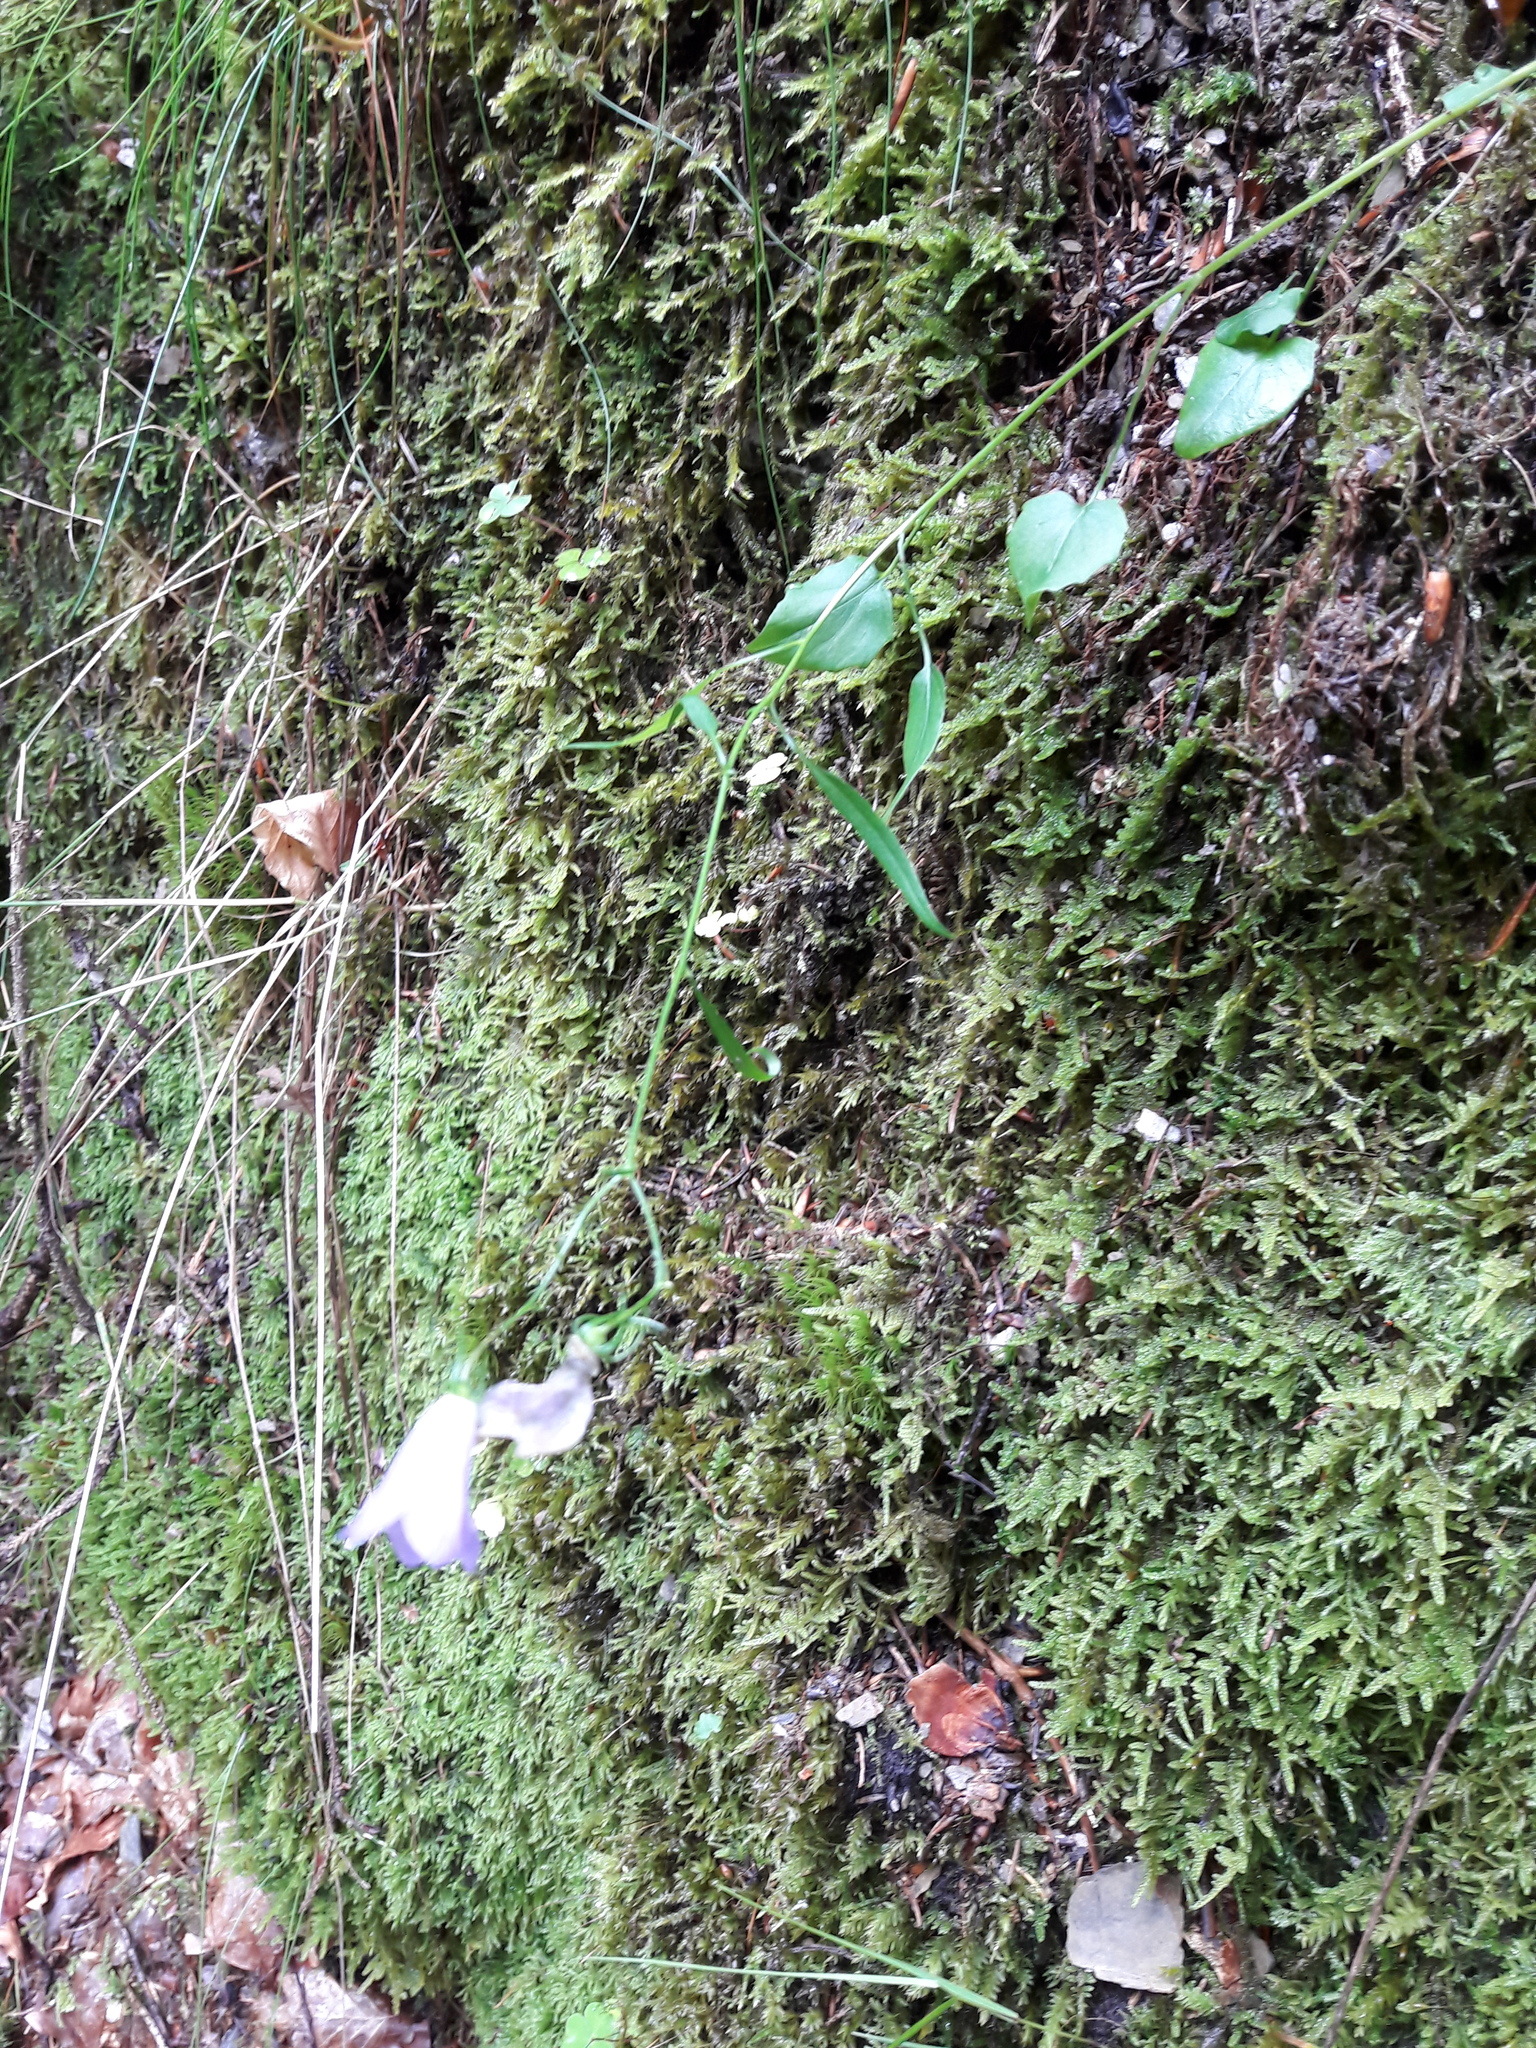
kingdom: Plantae
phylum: Tracheophyta
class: Magnoliopsida
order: Asterales
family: Campanulaceae
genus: Campanula
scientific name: Campanula rotundifolia
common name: Harebell
